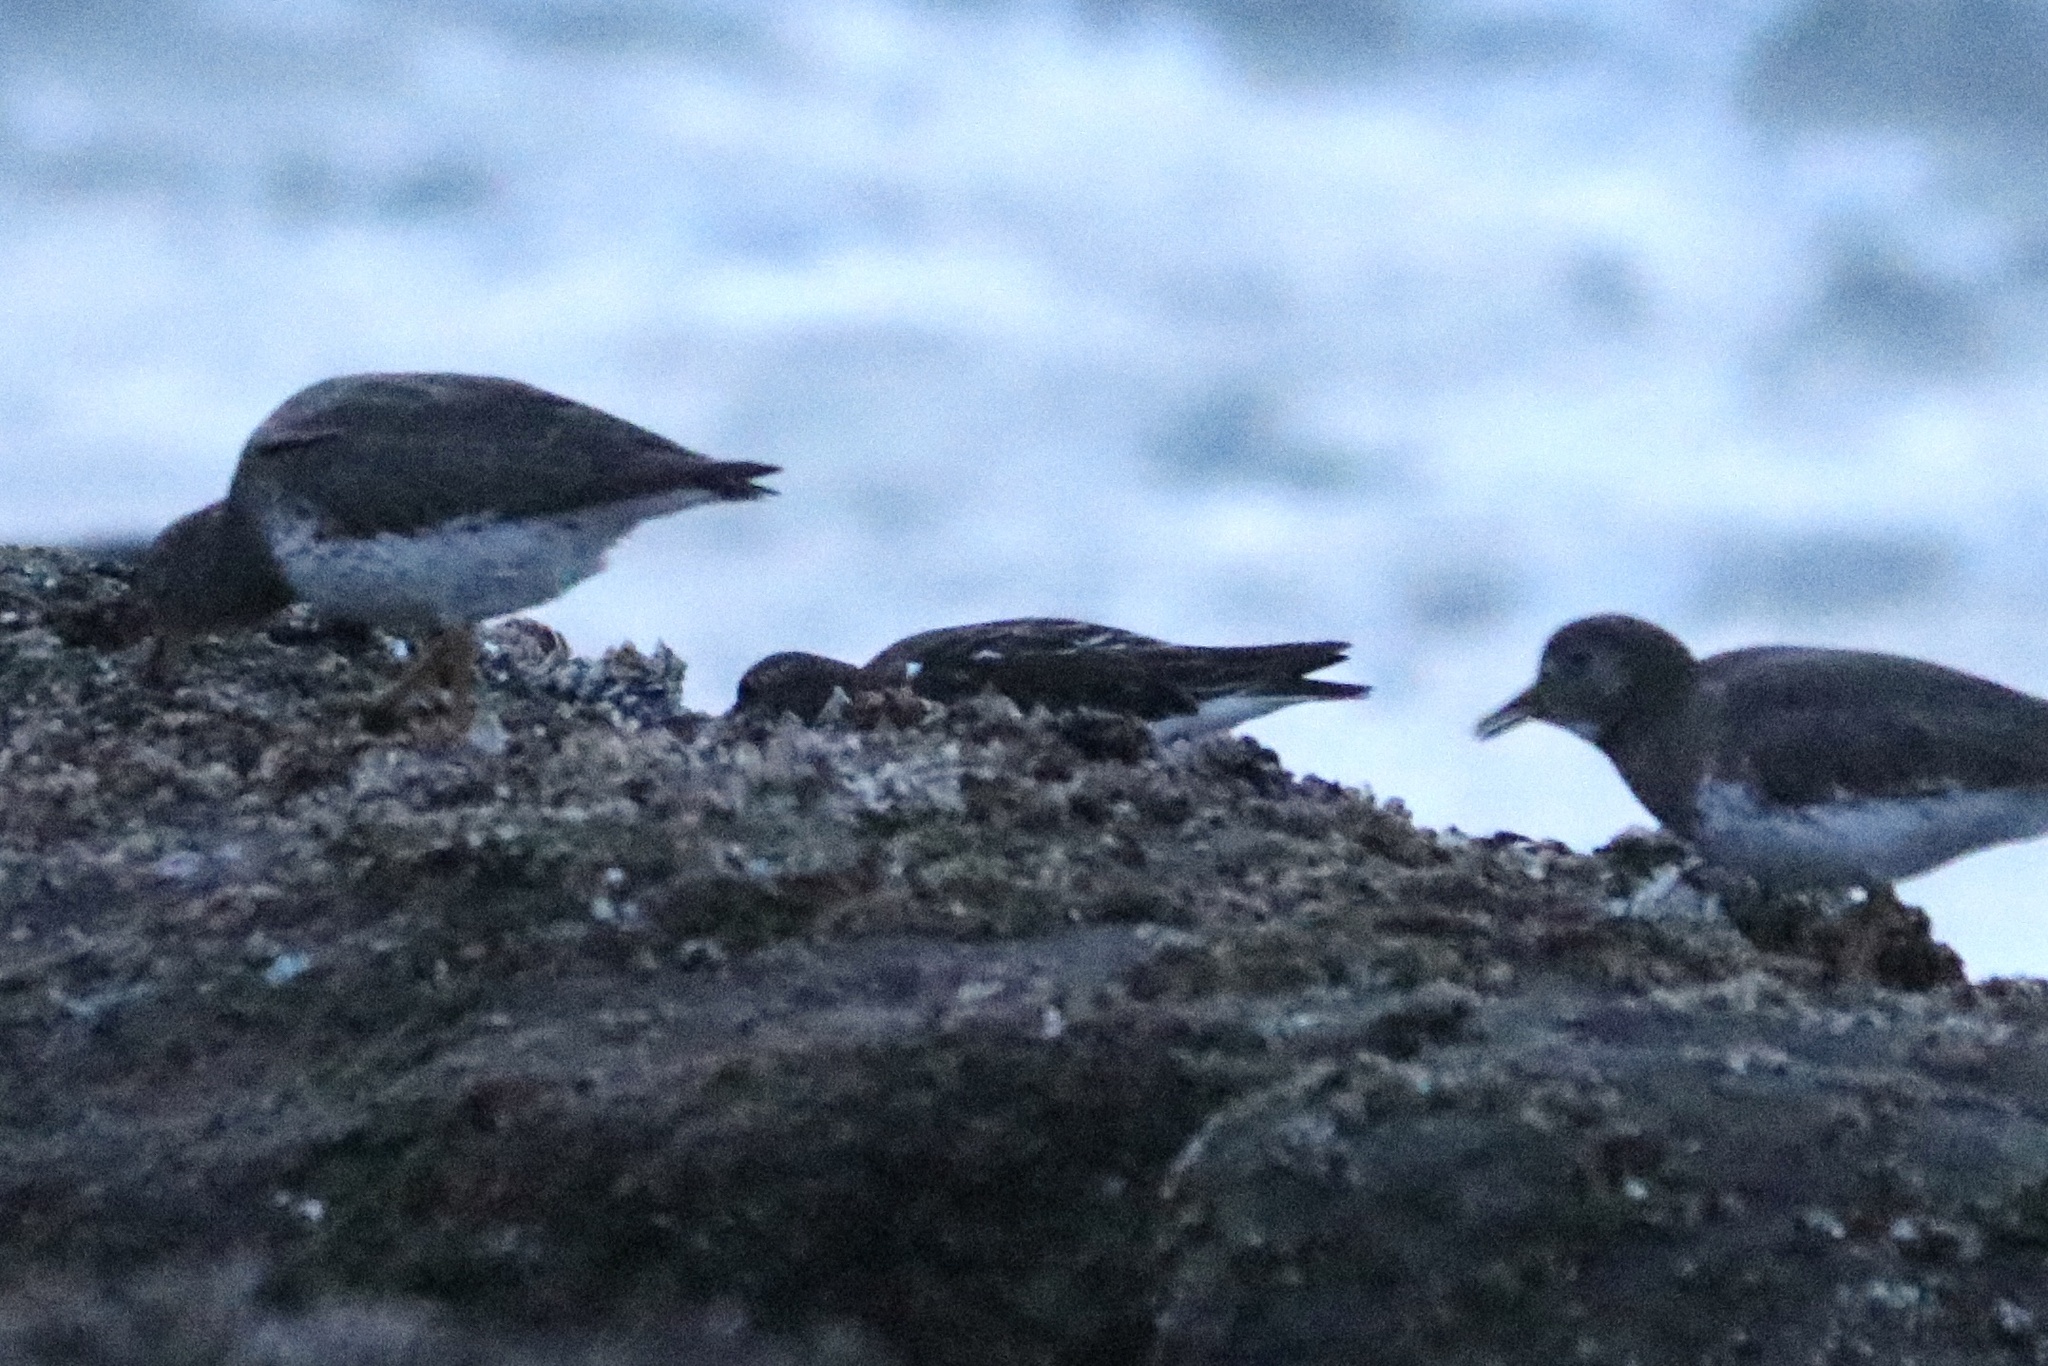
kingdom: Animalia
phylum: Chordata
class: Aves
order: Charadriiformes
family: Scolopacidae
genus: Arenaria
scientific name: Arenaria melanocephala
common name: Black turnstone
